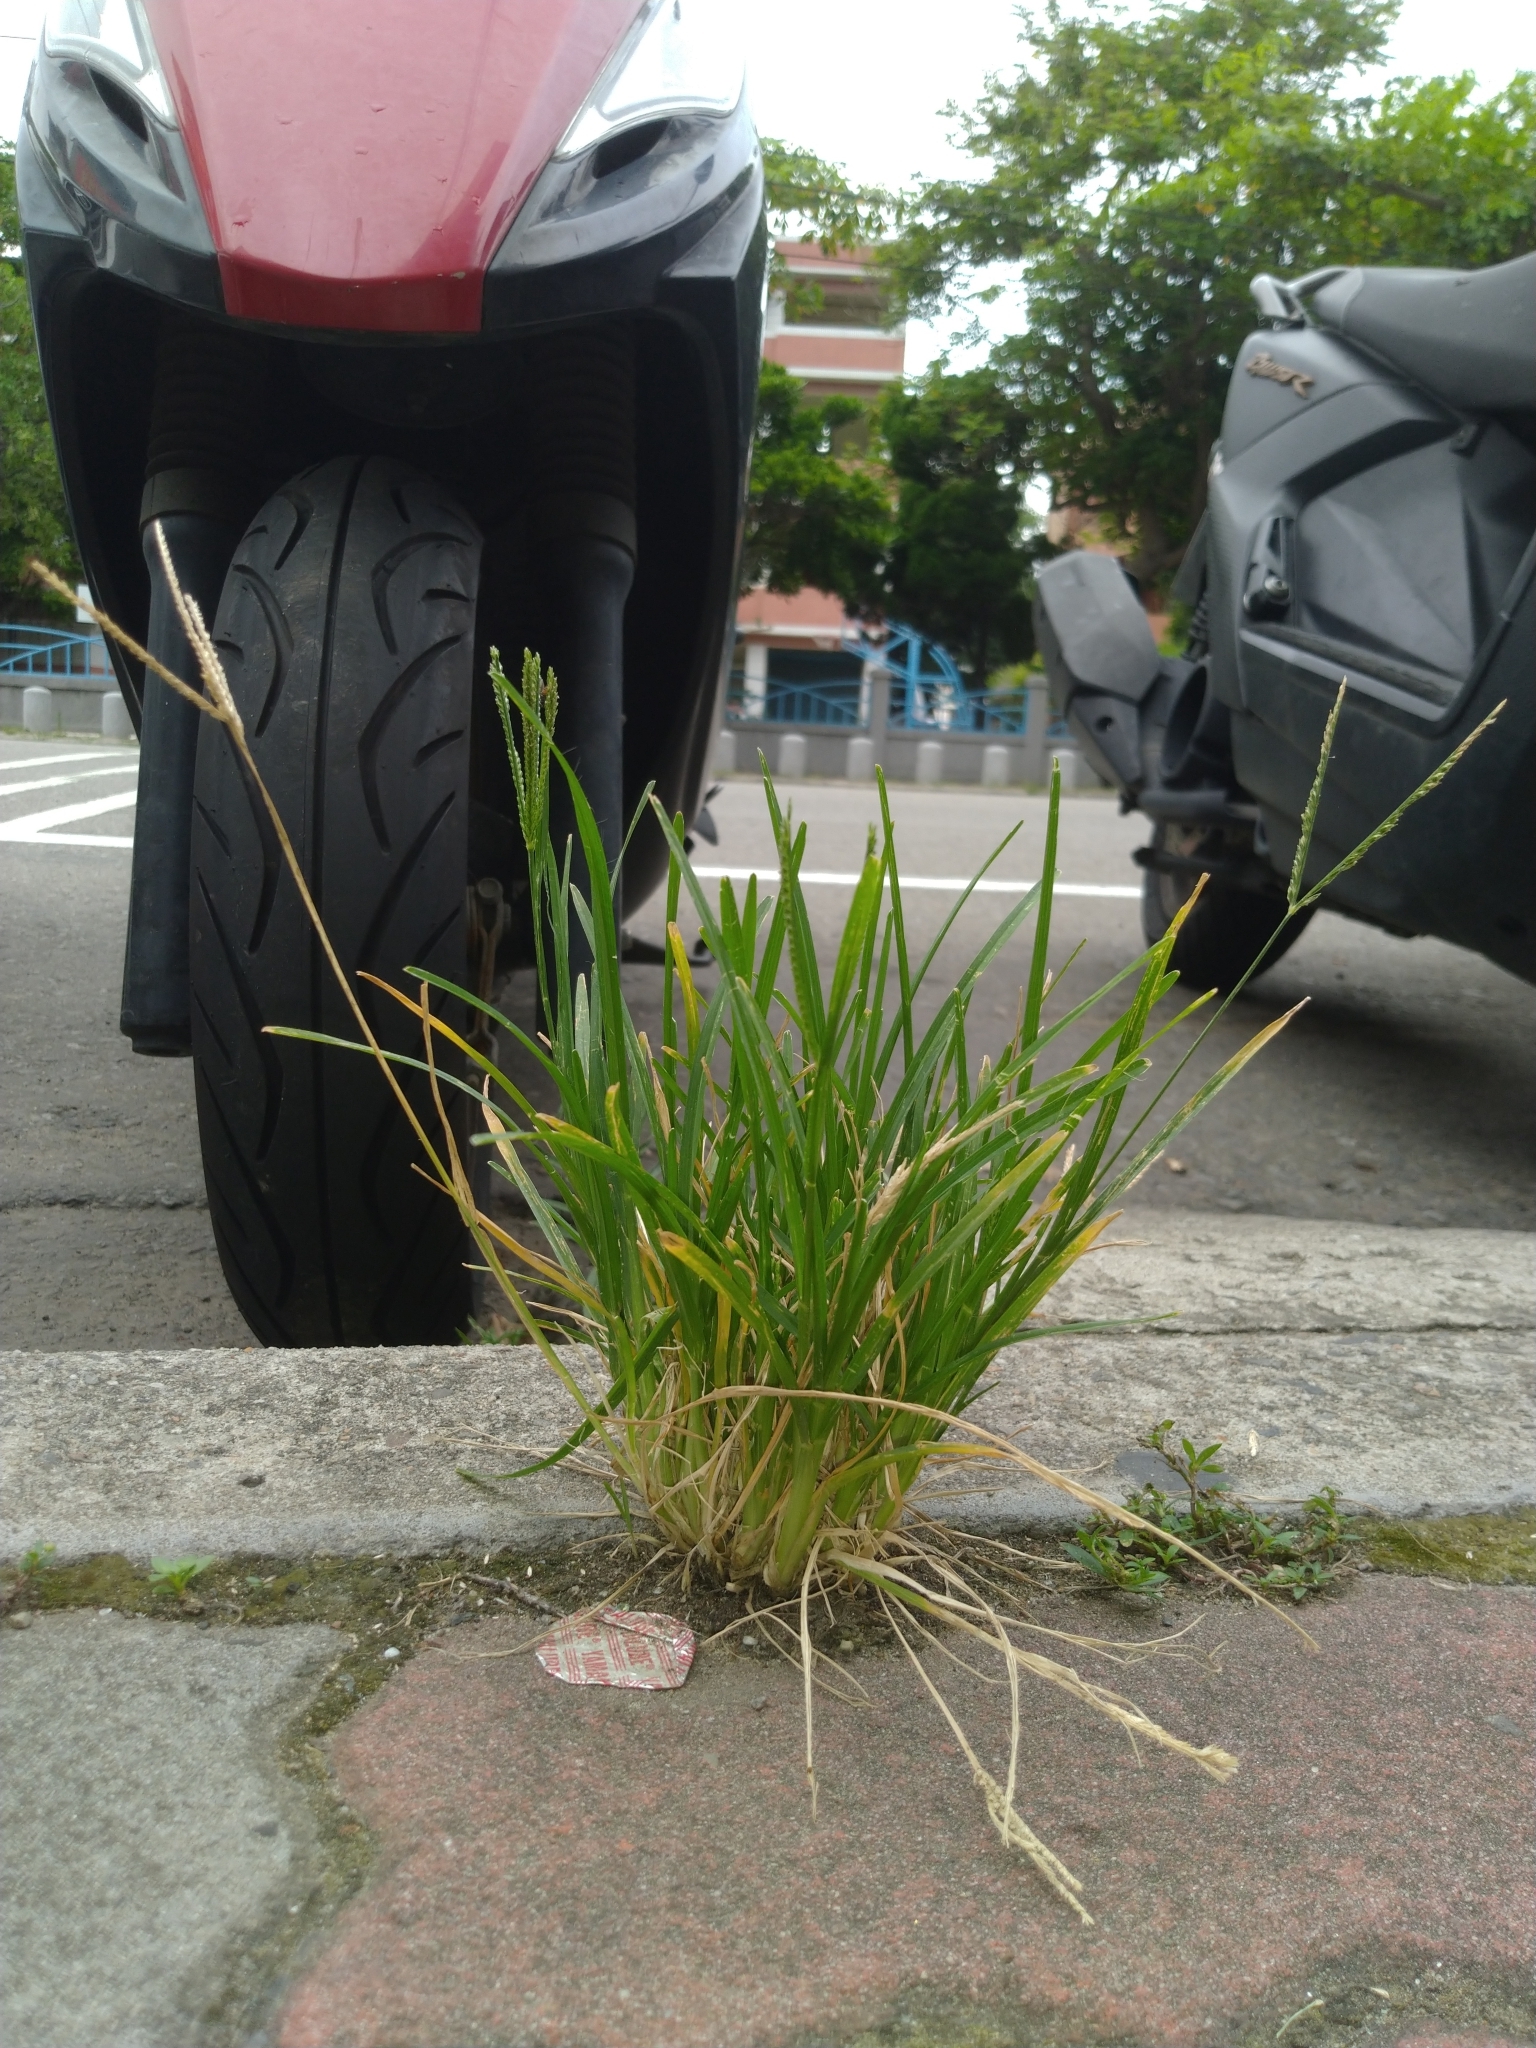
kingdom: Plantae
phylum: Tracheophyta
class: Liliopsida
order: Poales
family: Poaceae
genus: Eleusine
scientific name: Eleusine indica
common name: Yard-grass
